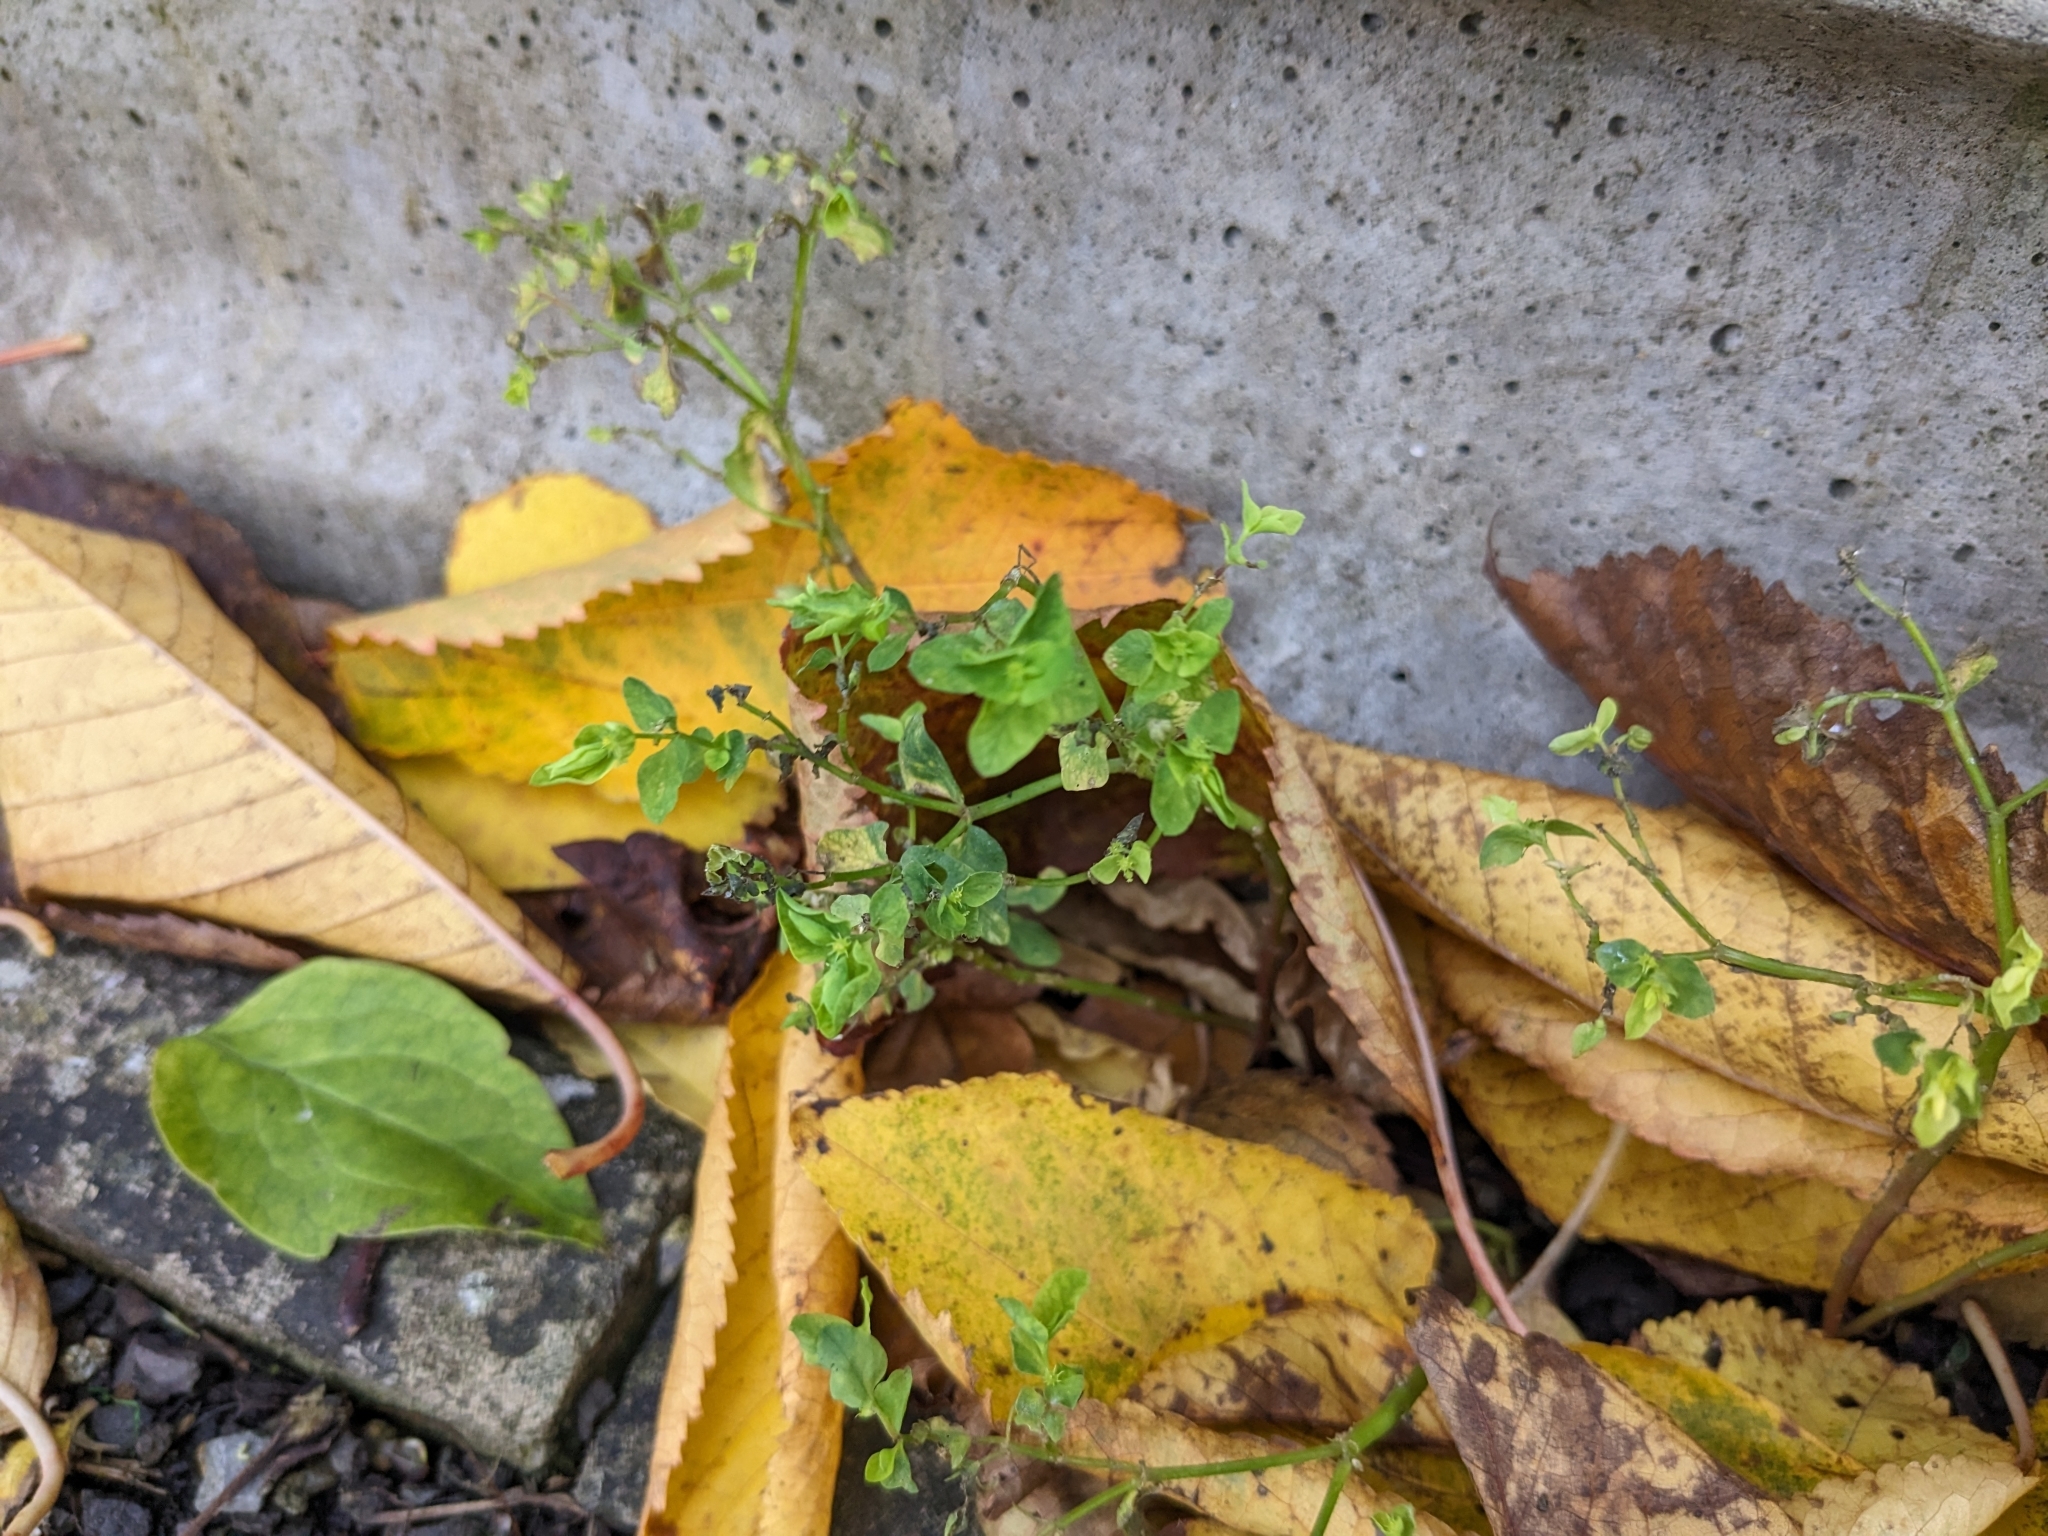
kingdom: Plantae
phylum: Tracheophyta
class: Magnoliopsida
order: Malpighiales
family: Euphorbiaceae
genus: Euphorbia
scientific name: Euphorbia peplus
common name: Petty spurge
